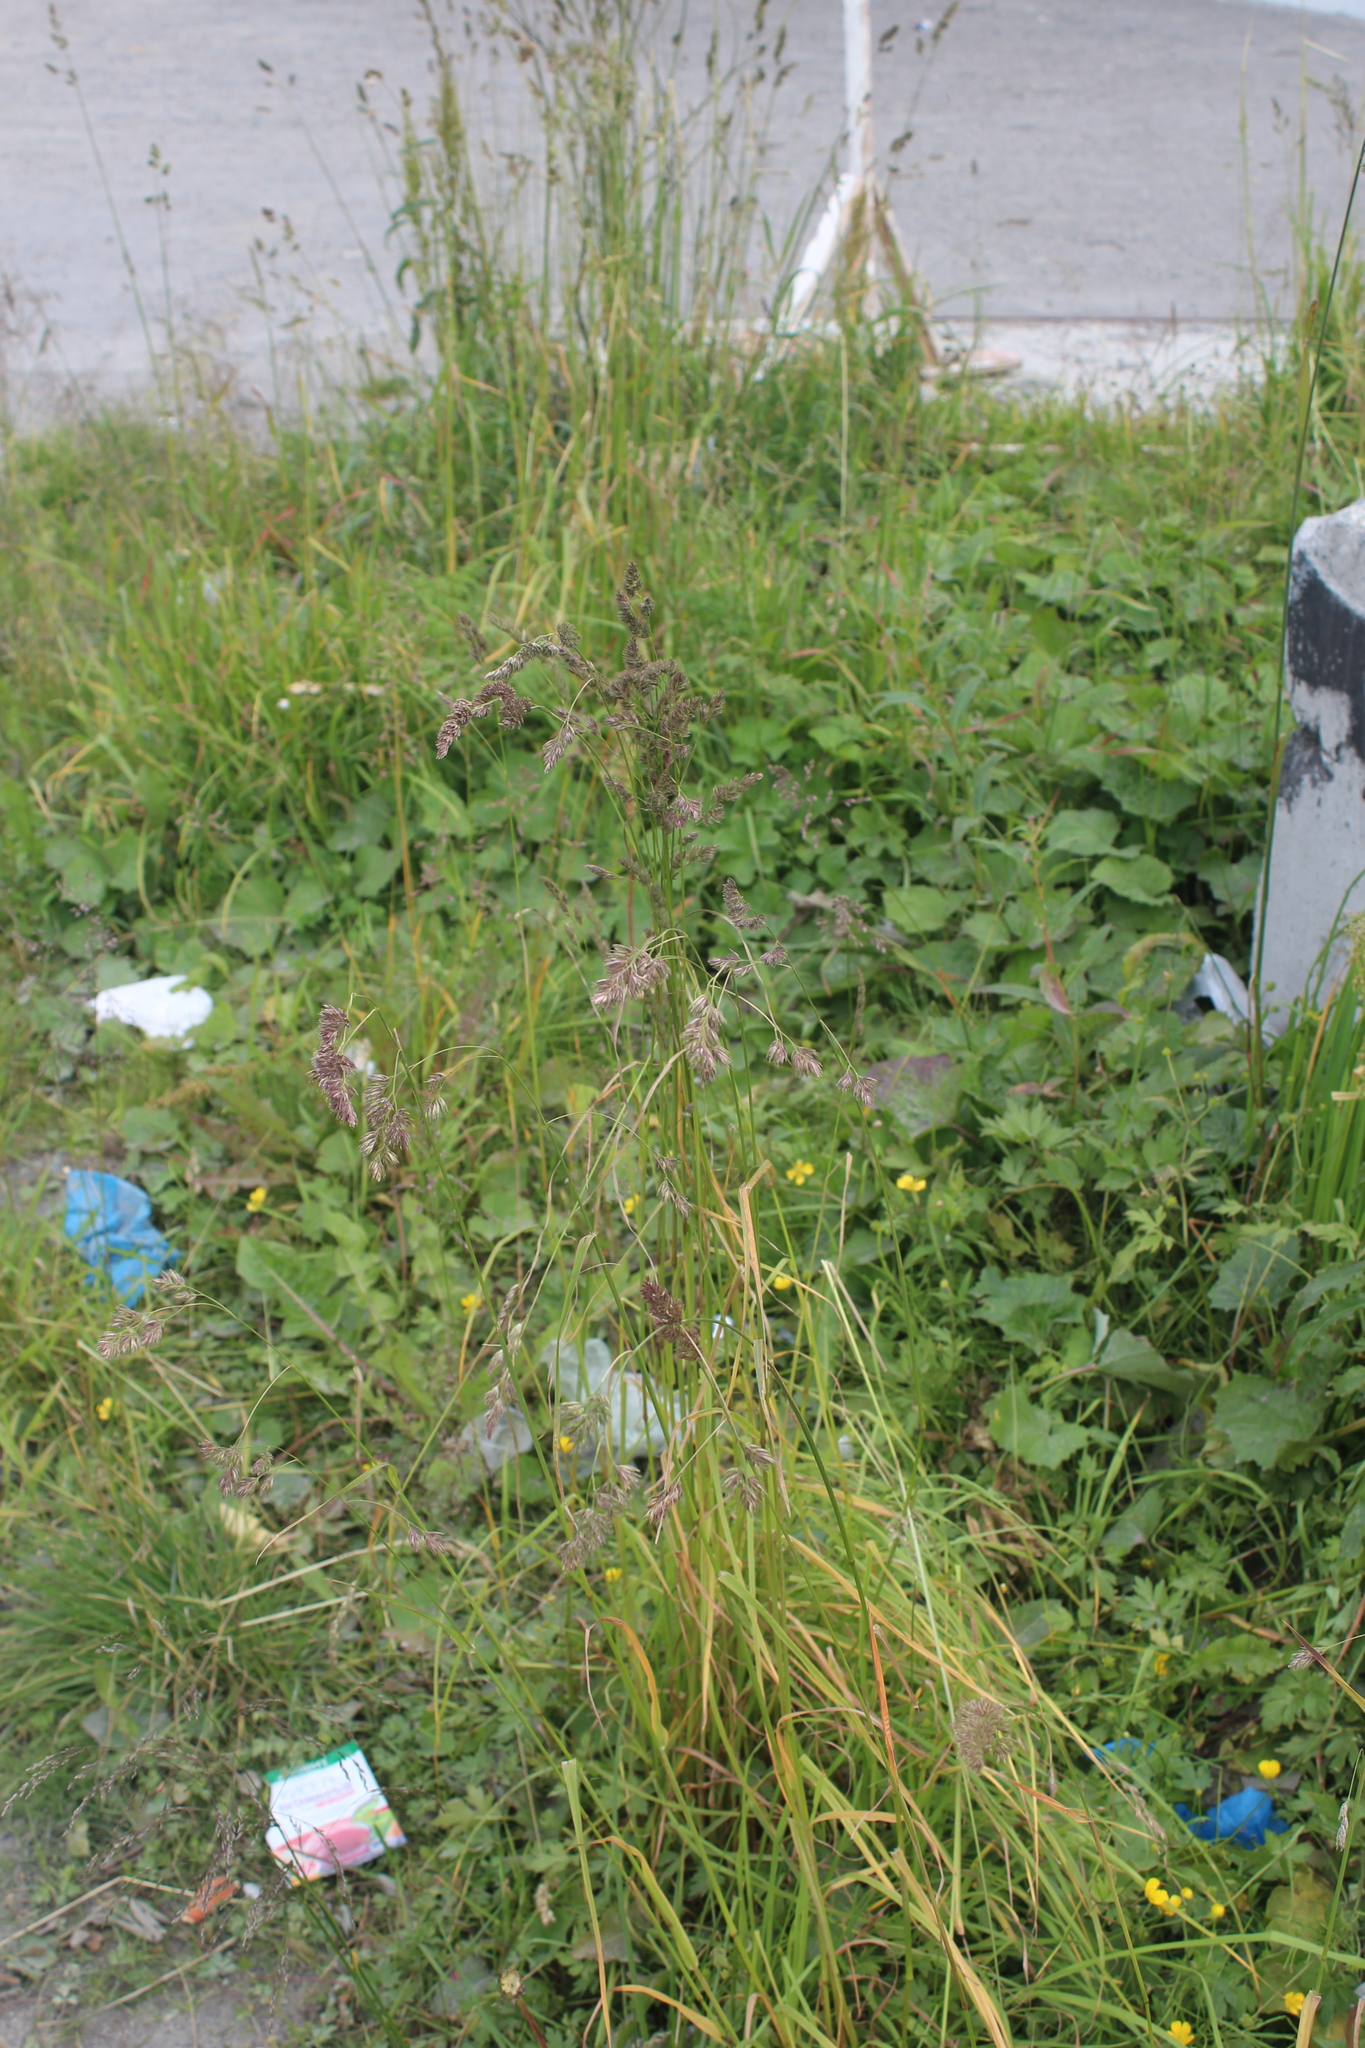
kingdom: Plantae
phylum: Tracheophyta
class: Liliopsida
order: Poales
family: Poaceae
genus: Dactylis
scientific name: Dactylis glomerata
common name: Orchardgrass
